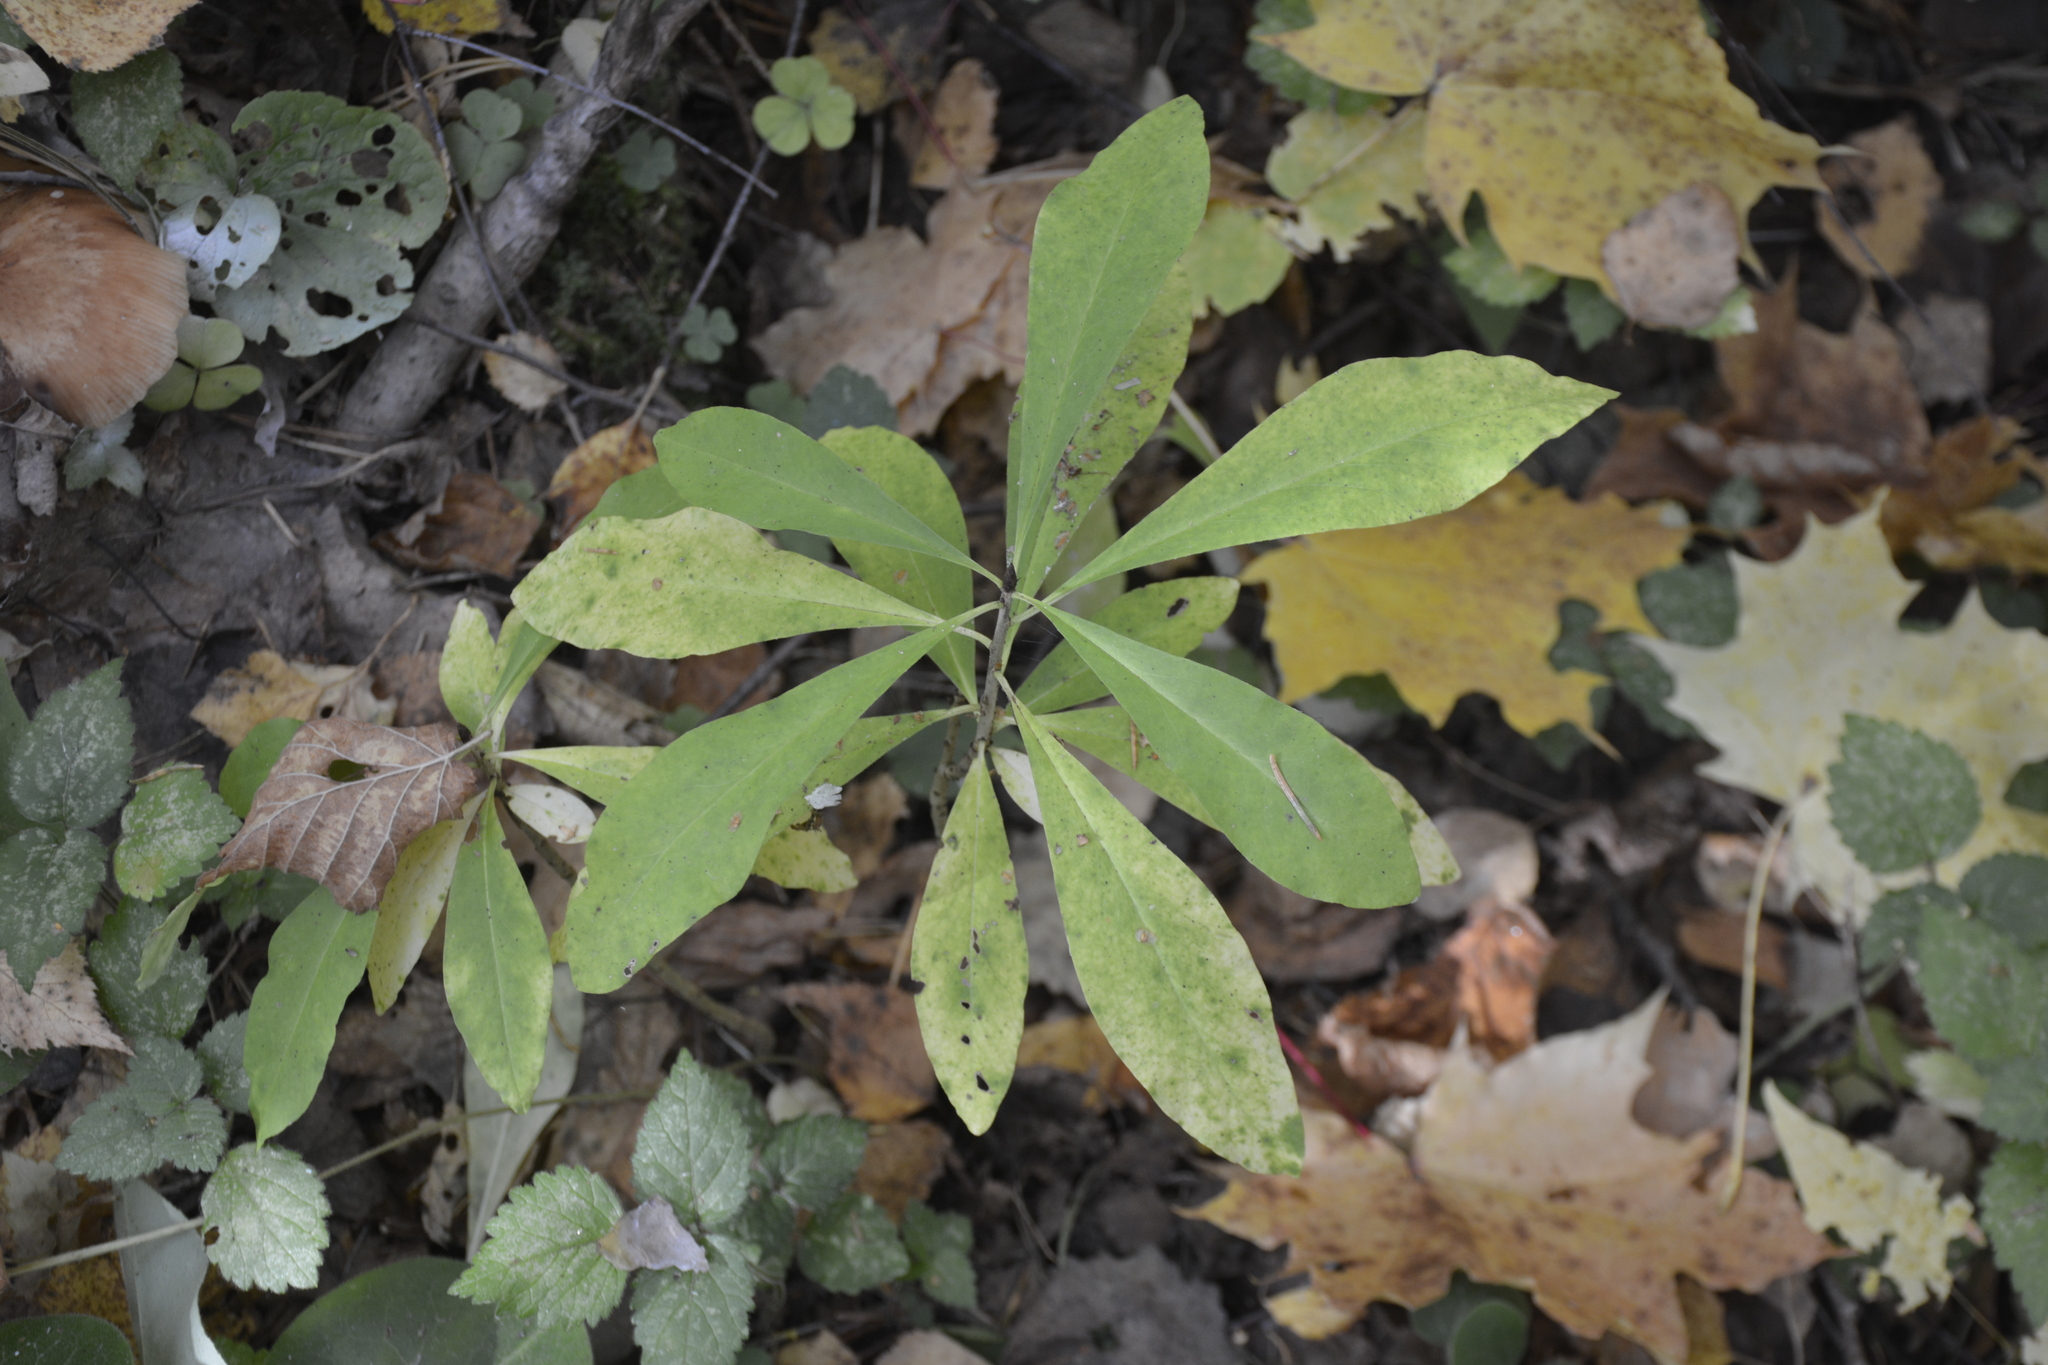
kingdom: Plantae
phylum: Tracheophyta
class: Magnoliopsida
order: Malvales
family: Thymelaeaceae
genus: Daphne
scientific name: Daphne mezereum
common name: Mezereon
